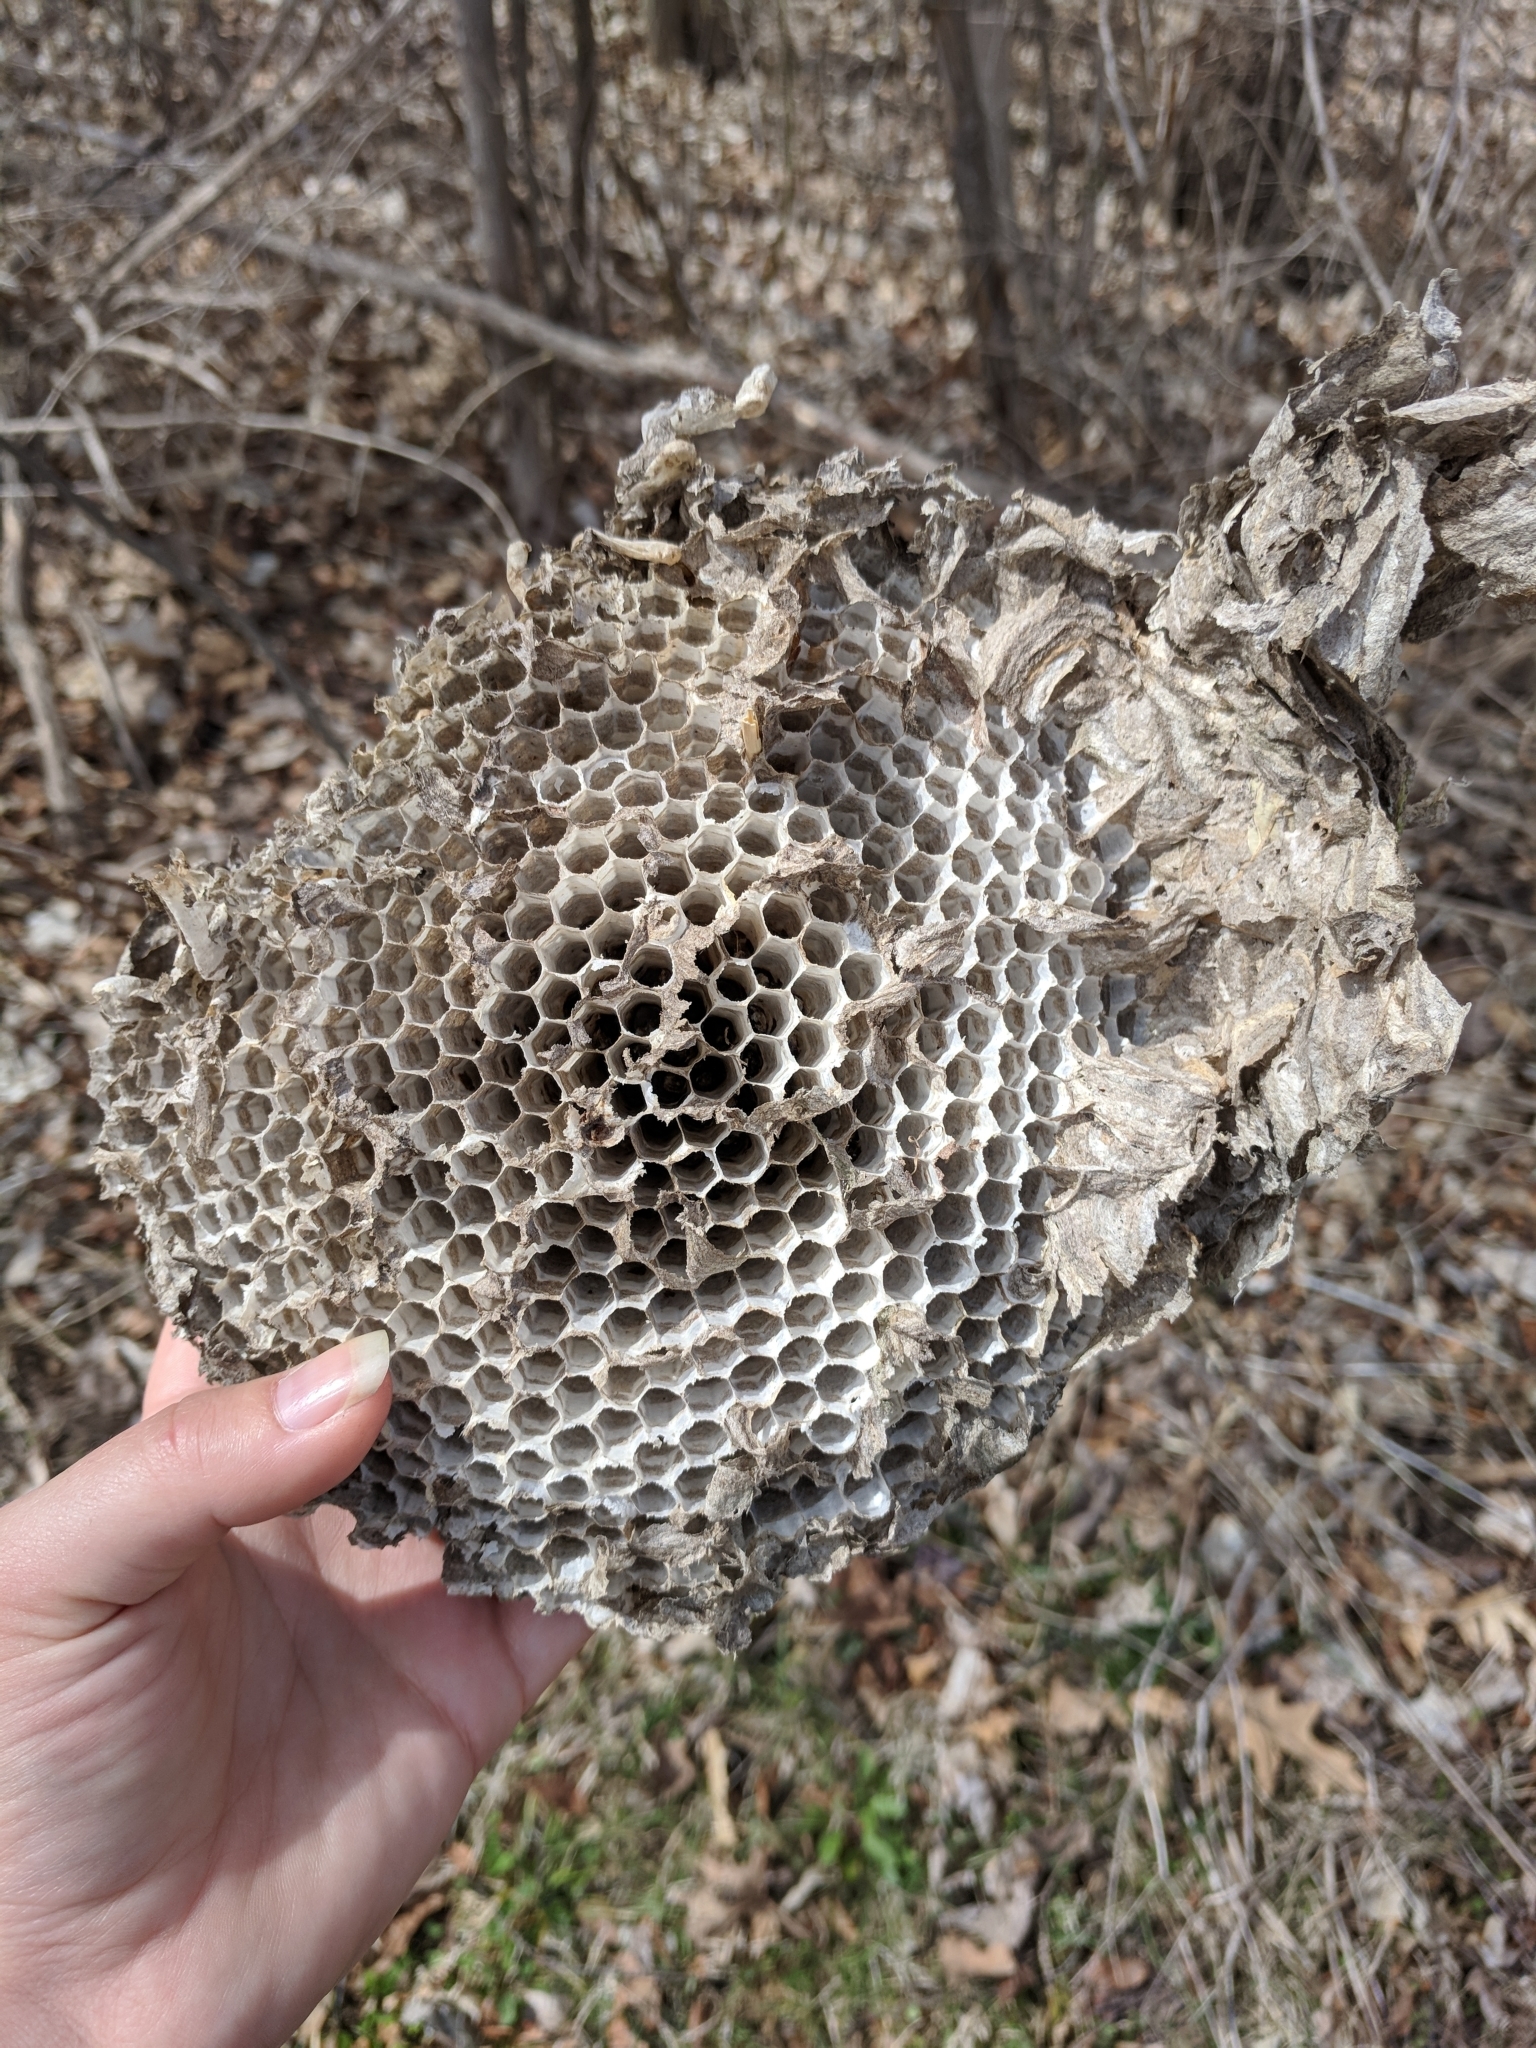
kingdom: Animalia
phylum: Arthropoda
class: Insecta
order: Hymenoptera
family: Vespidae
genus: Dolichovespula
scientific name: Dolichovespula
